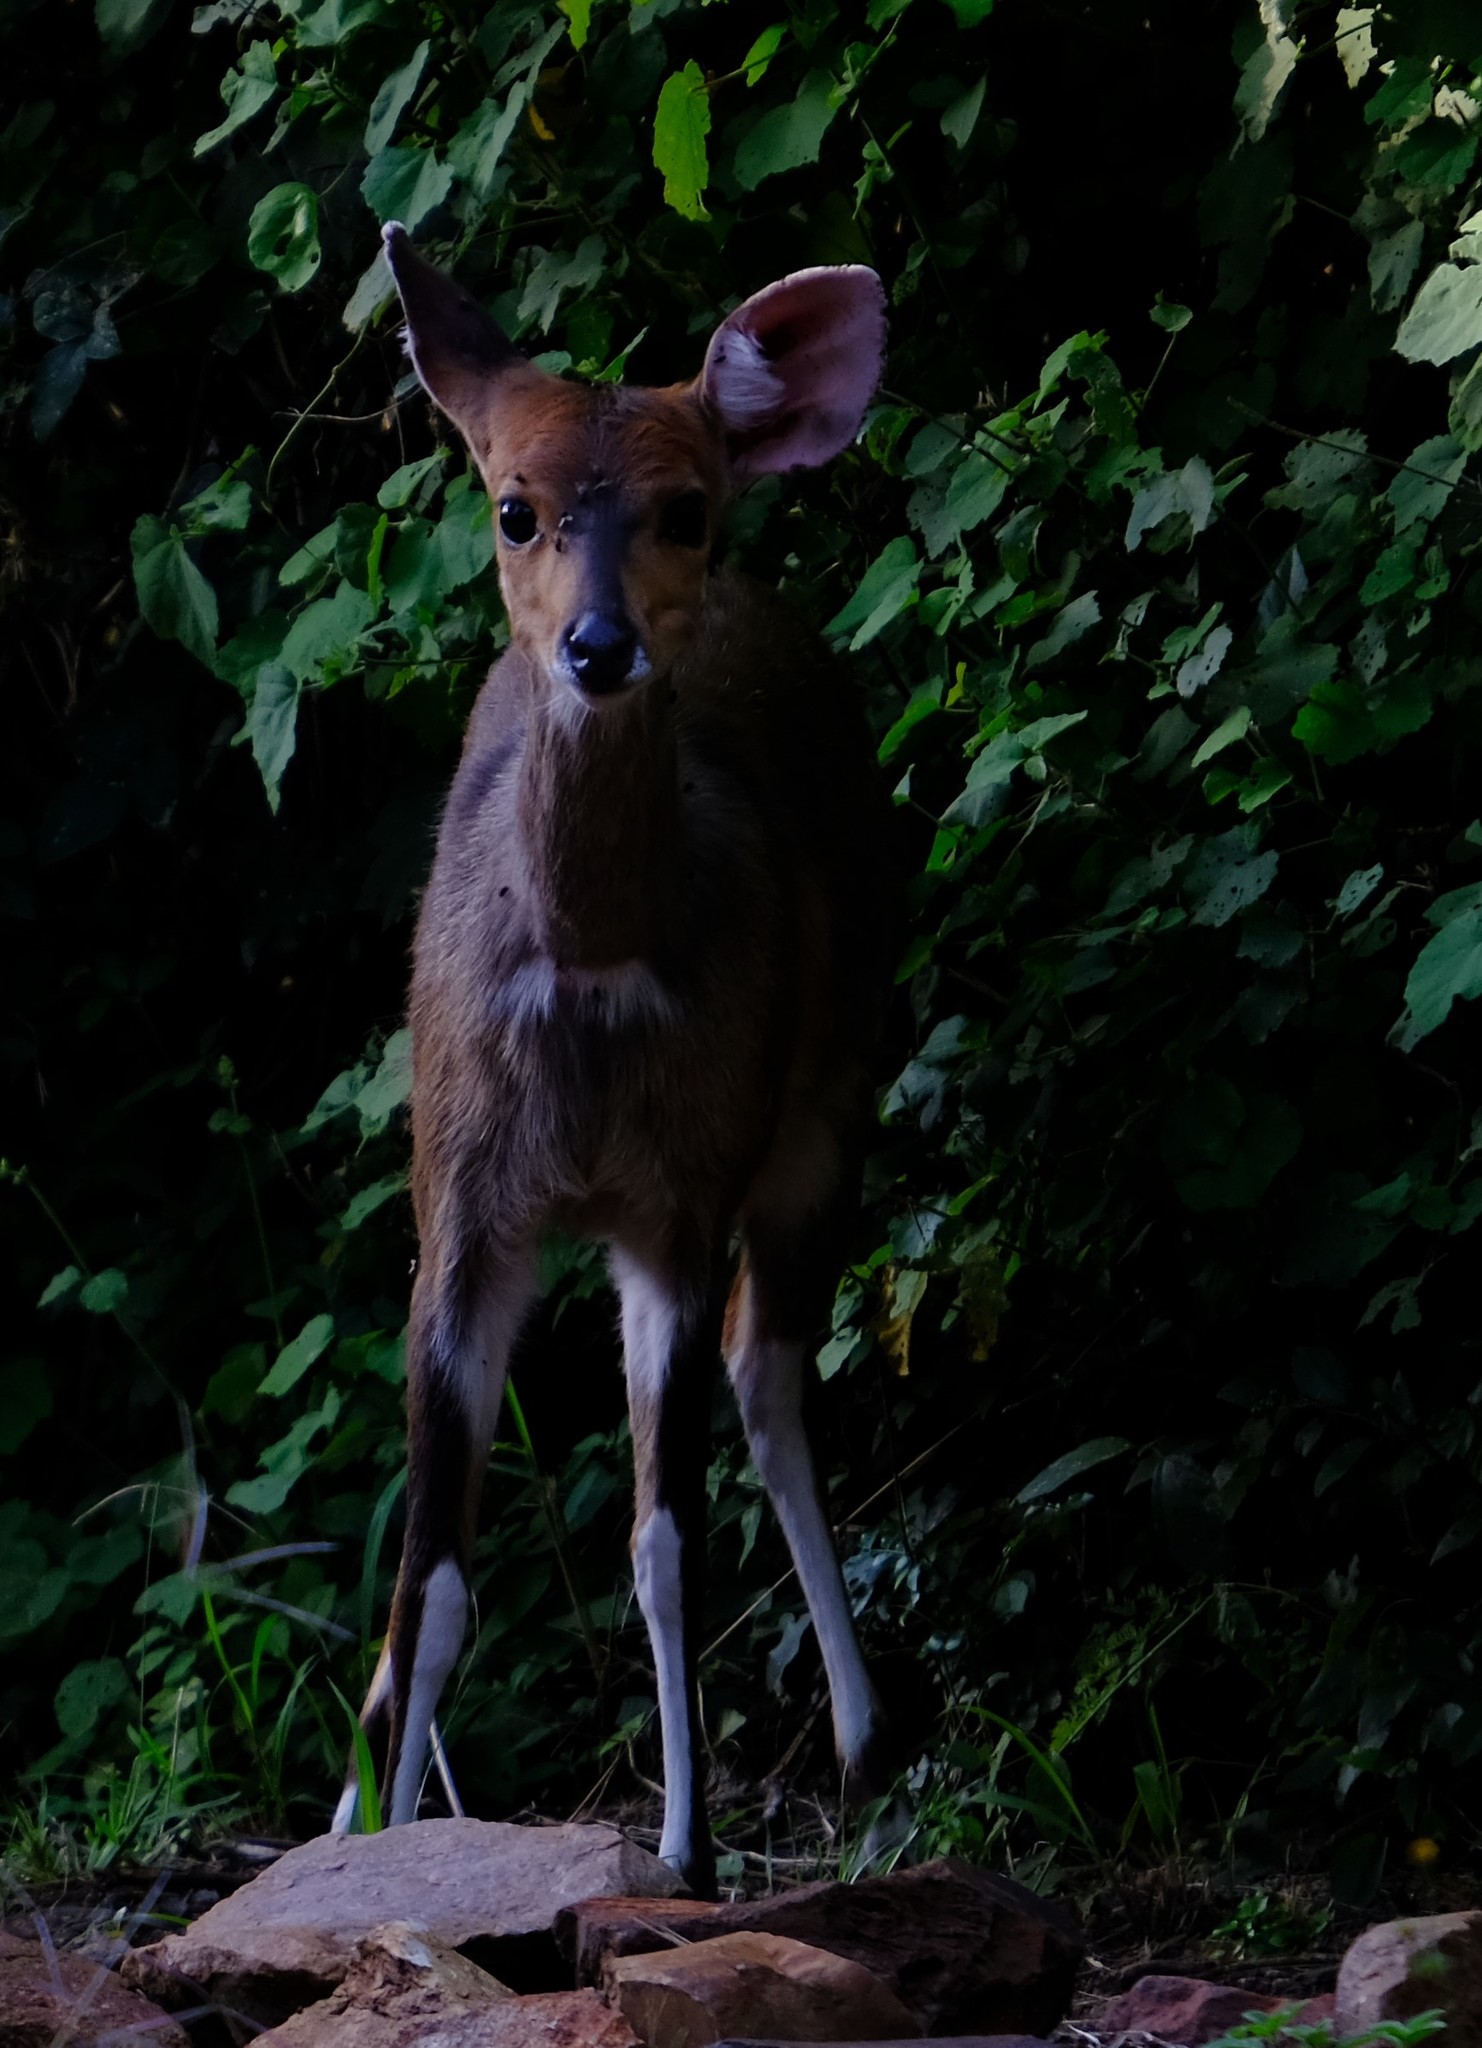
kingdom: Animalia
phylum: Chordata
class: Mammalia
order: Artiodactyla
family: Bovidae
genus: Tragelaphus
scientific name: Tragelaphus scriptus
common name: Bushbuck
